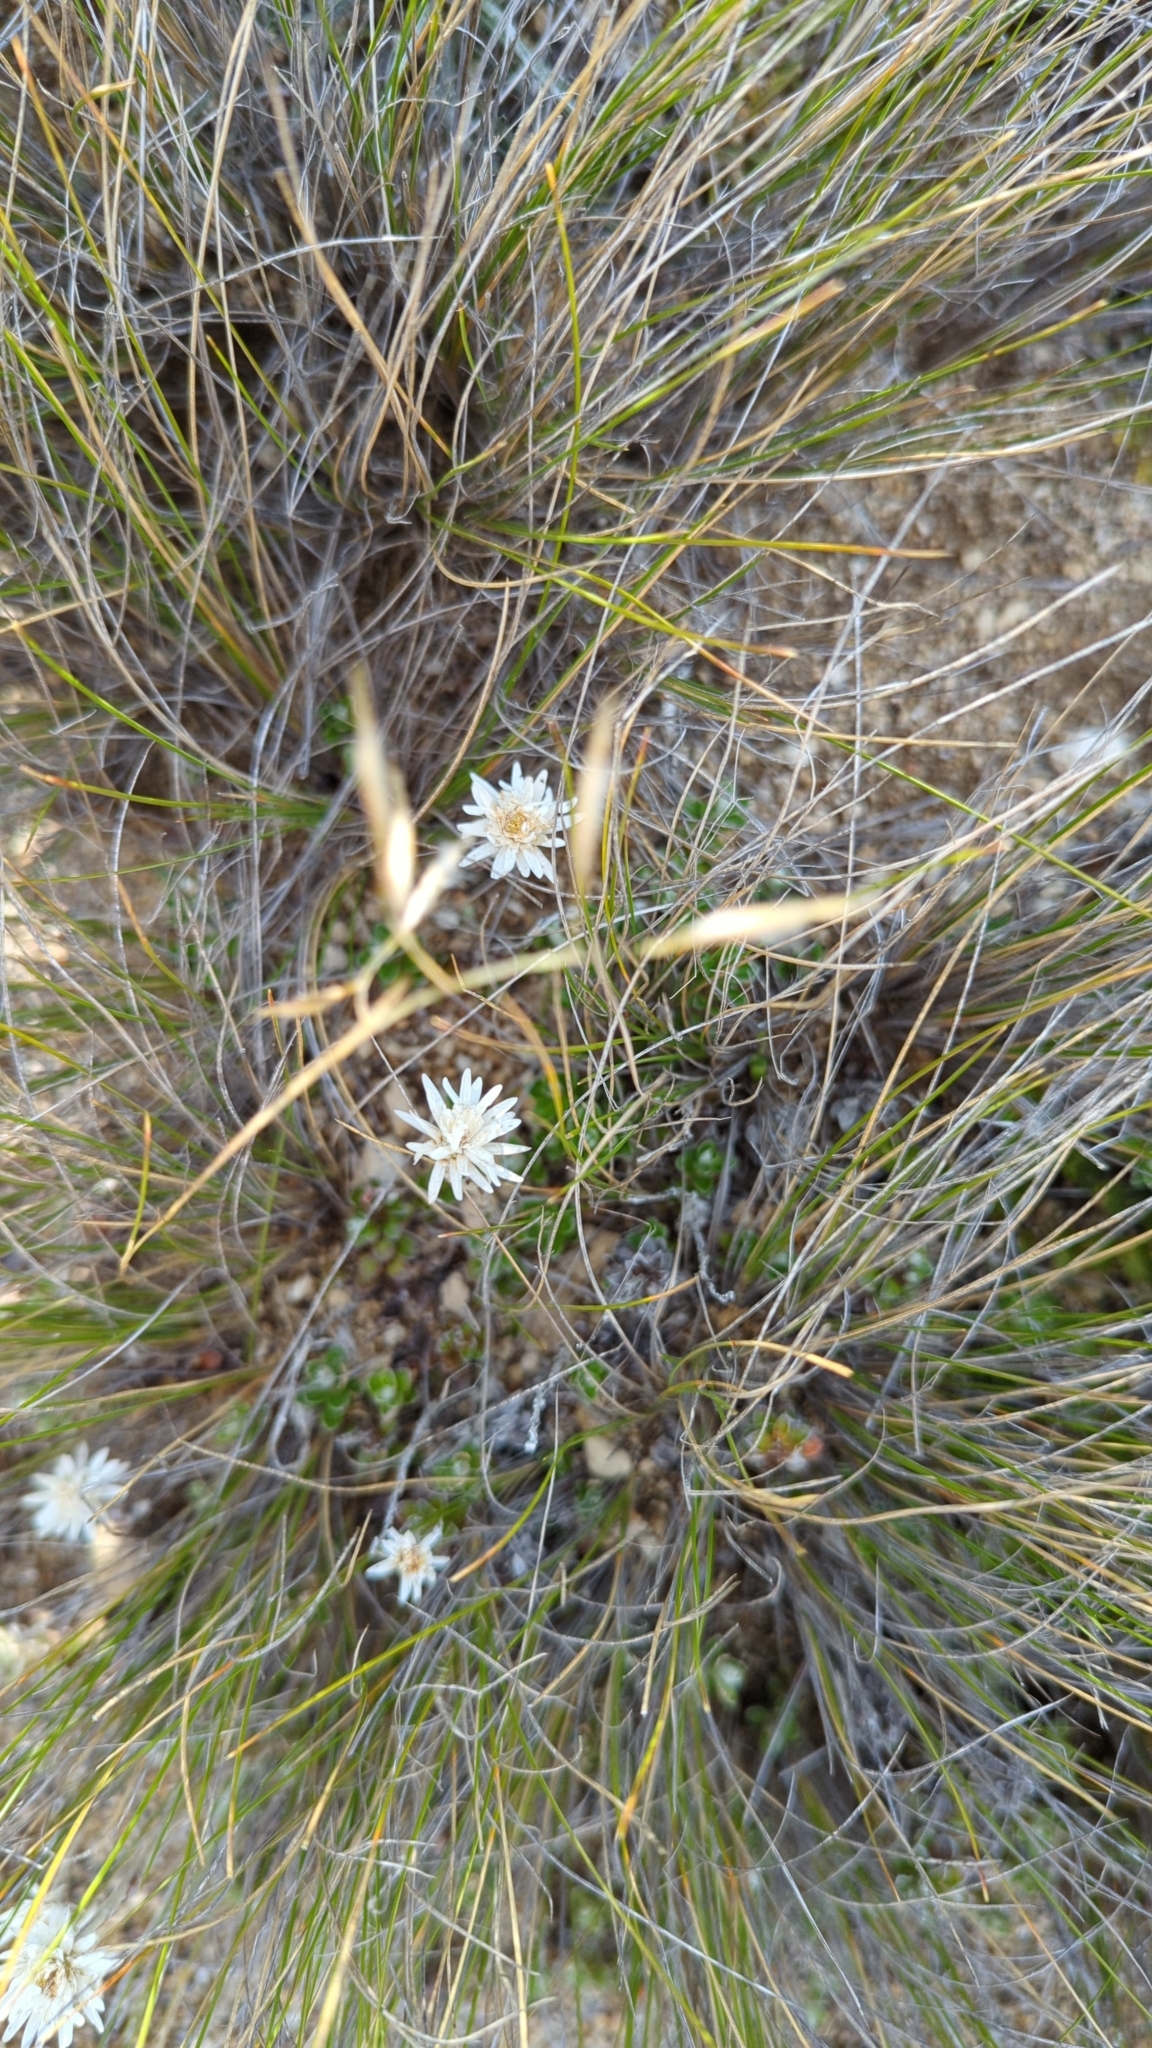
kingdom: Plantae
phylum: Tracheophyta
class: Magnoliopsida
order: Asterales
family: Asteraceae
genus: Celmisia
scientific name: Celmisia gracilenta
